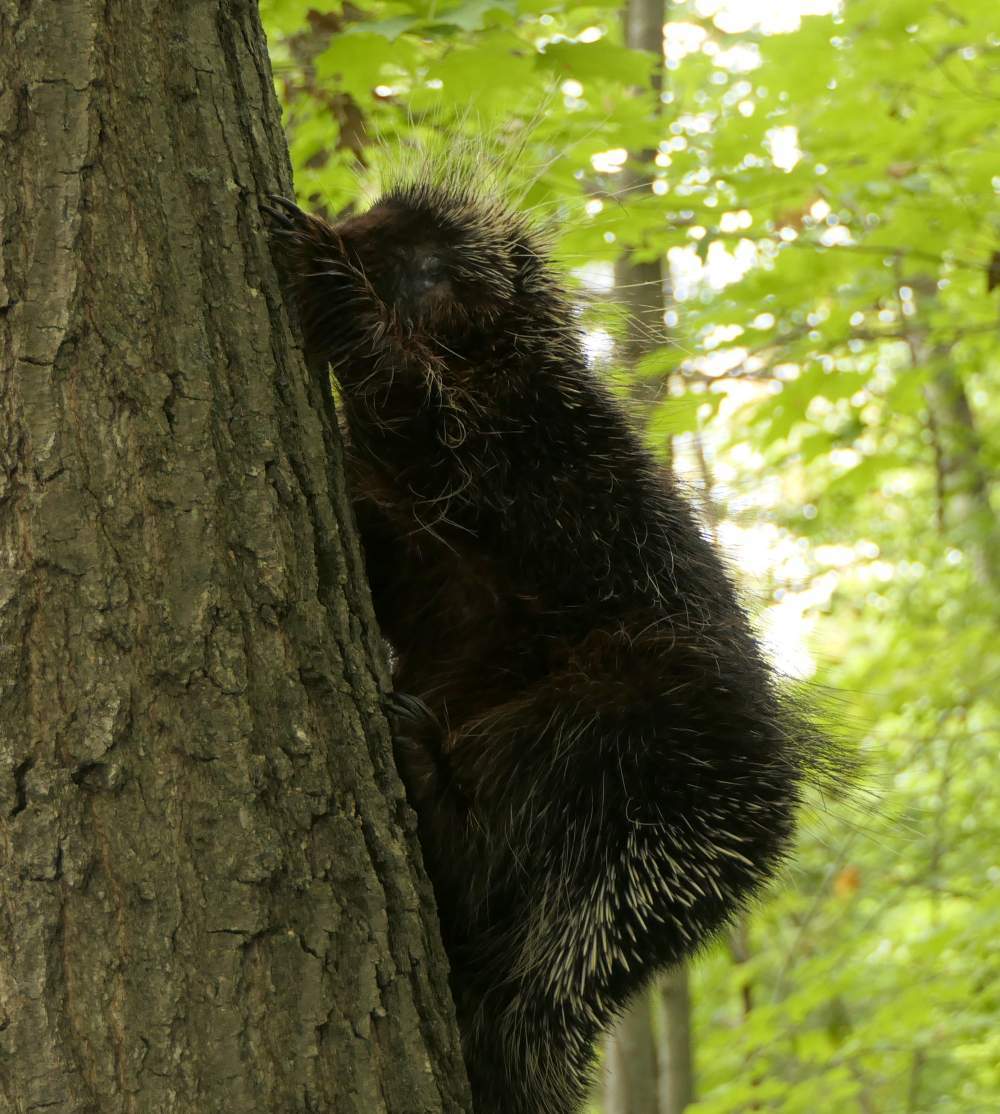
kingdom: Animalia
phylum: Chordata
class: Mammalia
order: Rodentia
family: Erethizontidae
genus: Erethizon
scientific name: Erethizon dorsatus
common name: North american porcupine
